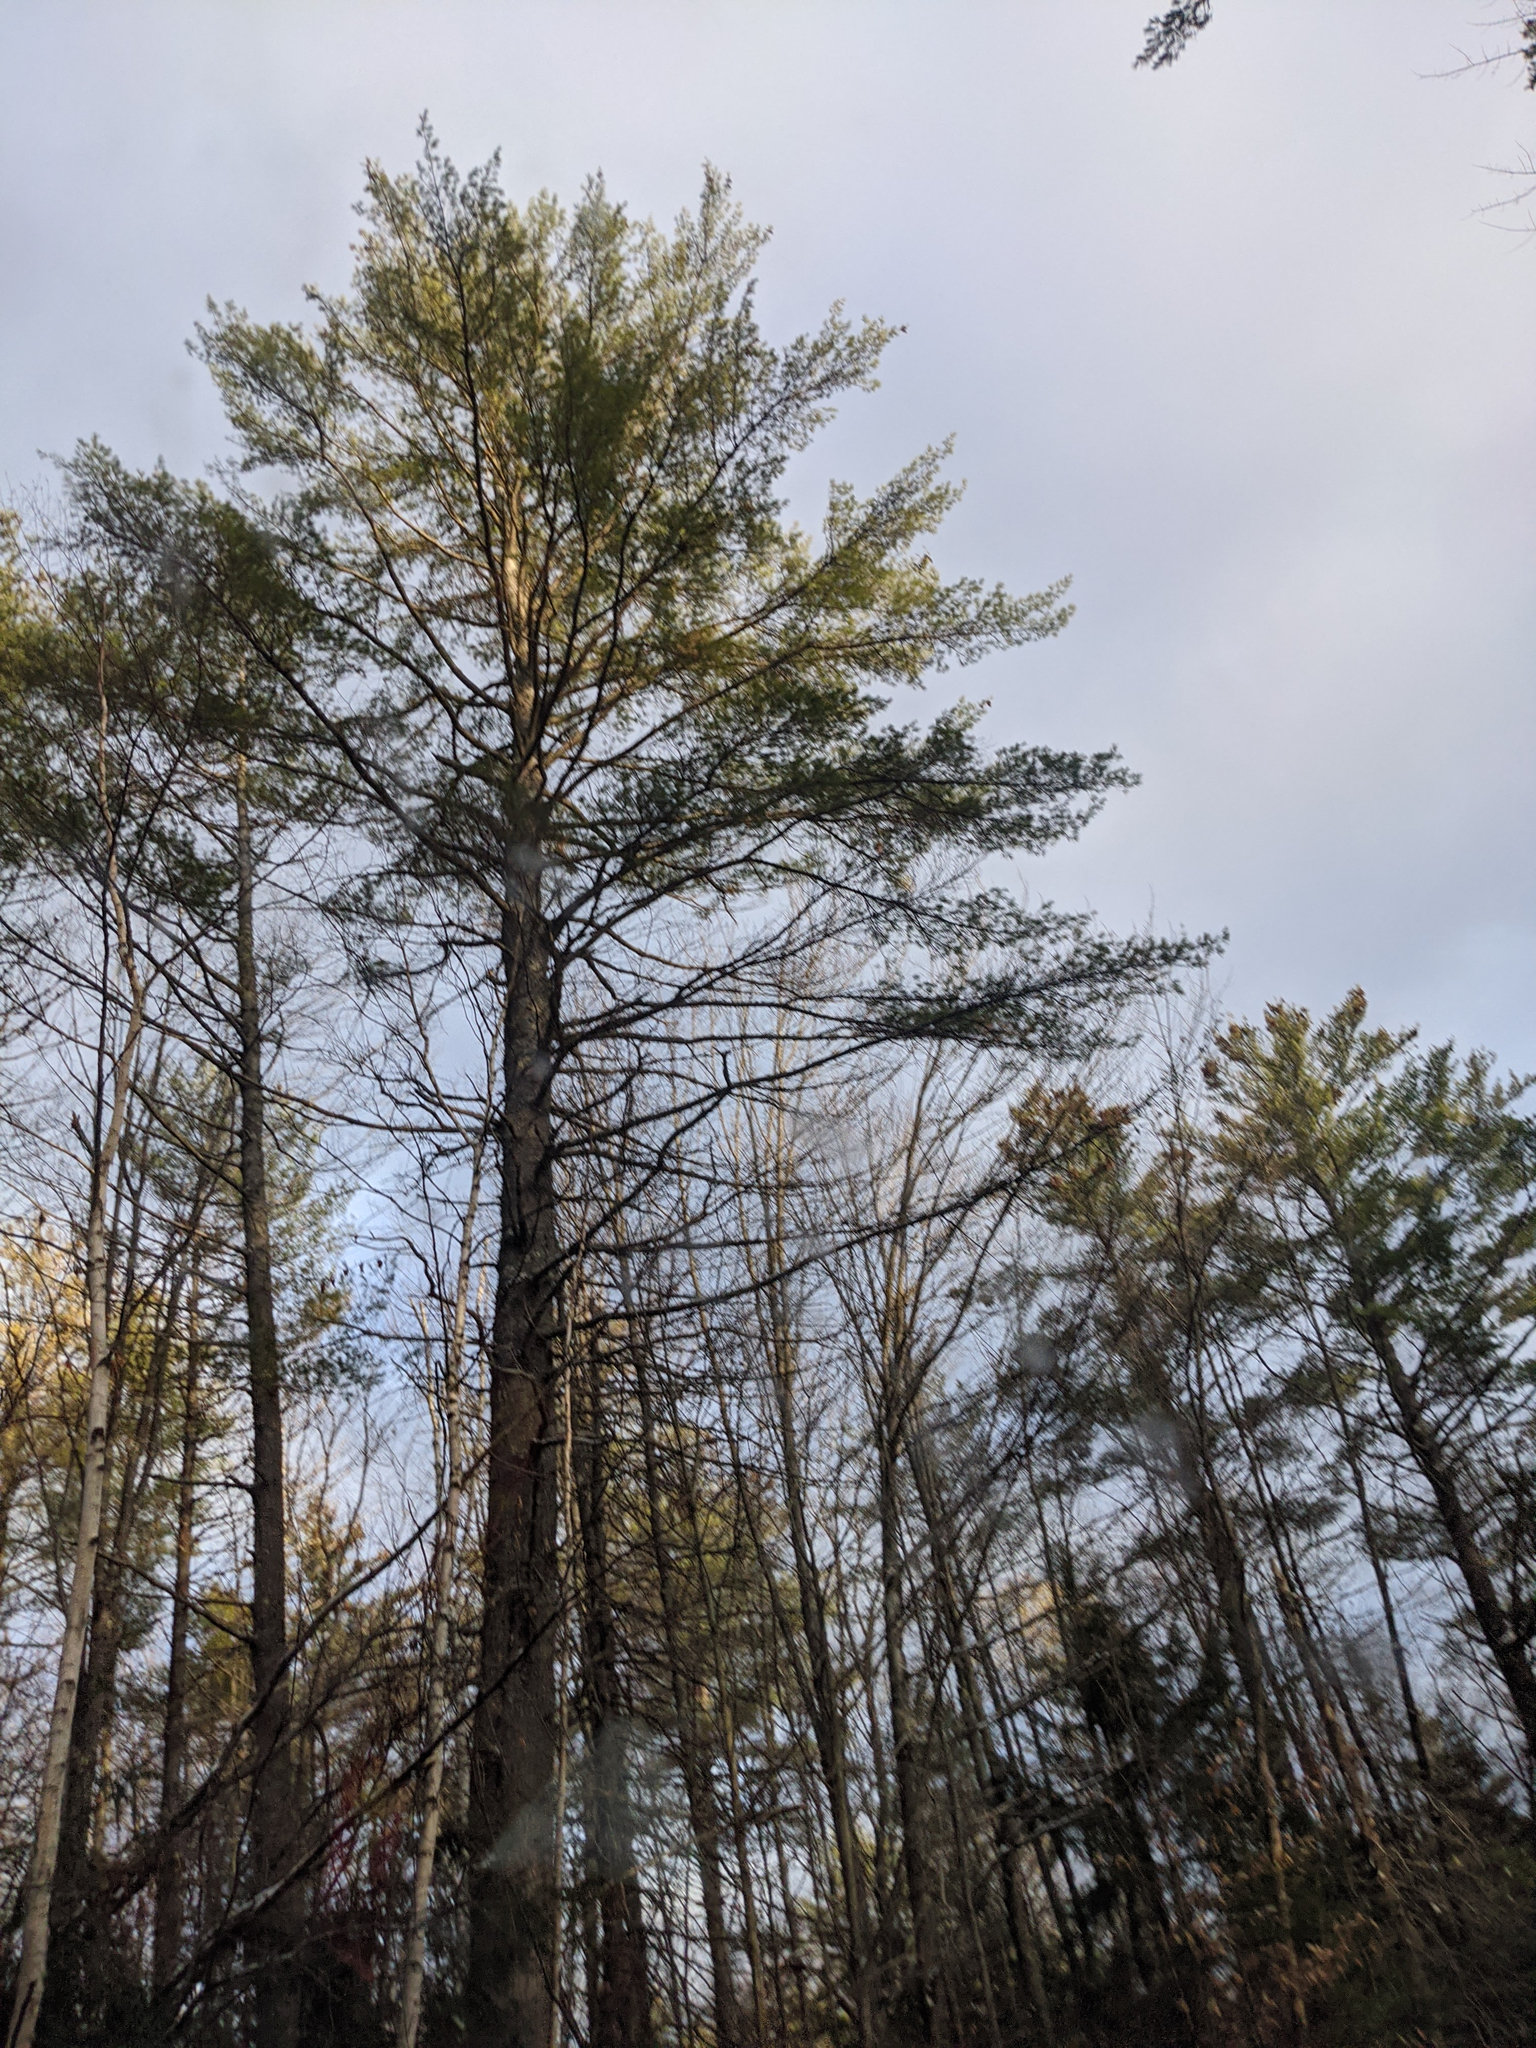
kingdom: Plantae
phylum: Tracheophyta
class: Pinopsida
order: Pinales
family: Pinaceae
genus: Pinus
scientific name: Pinus strobus
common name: Weymouth pine
